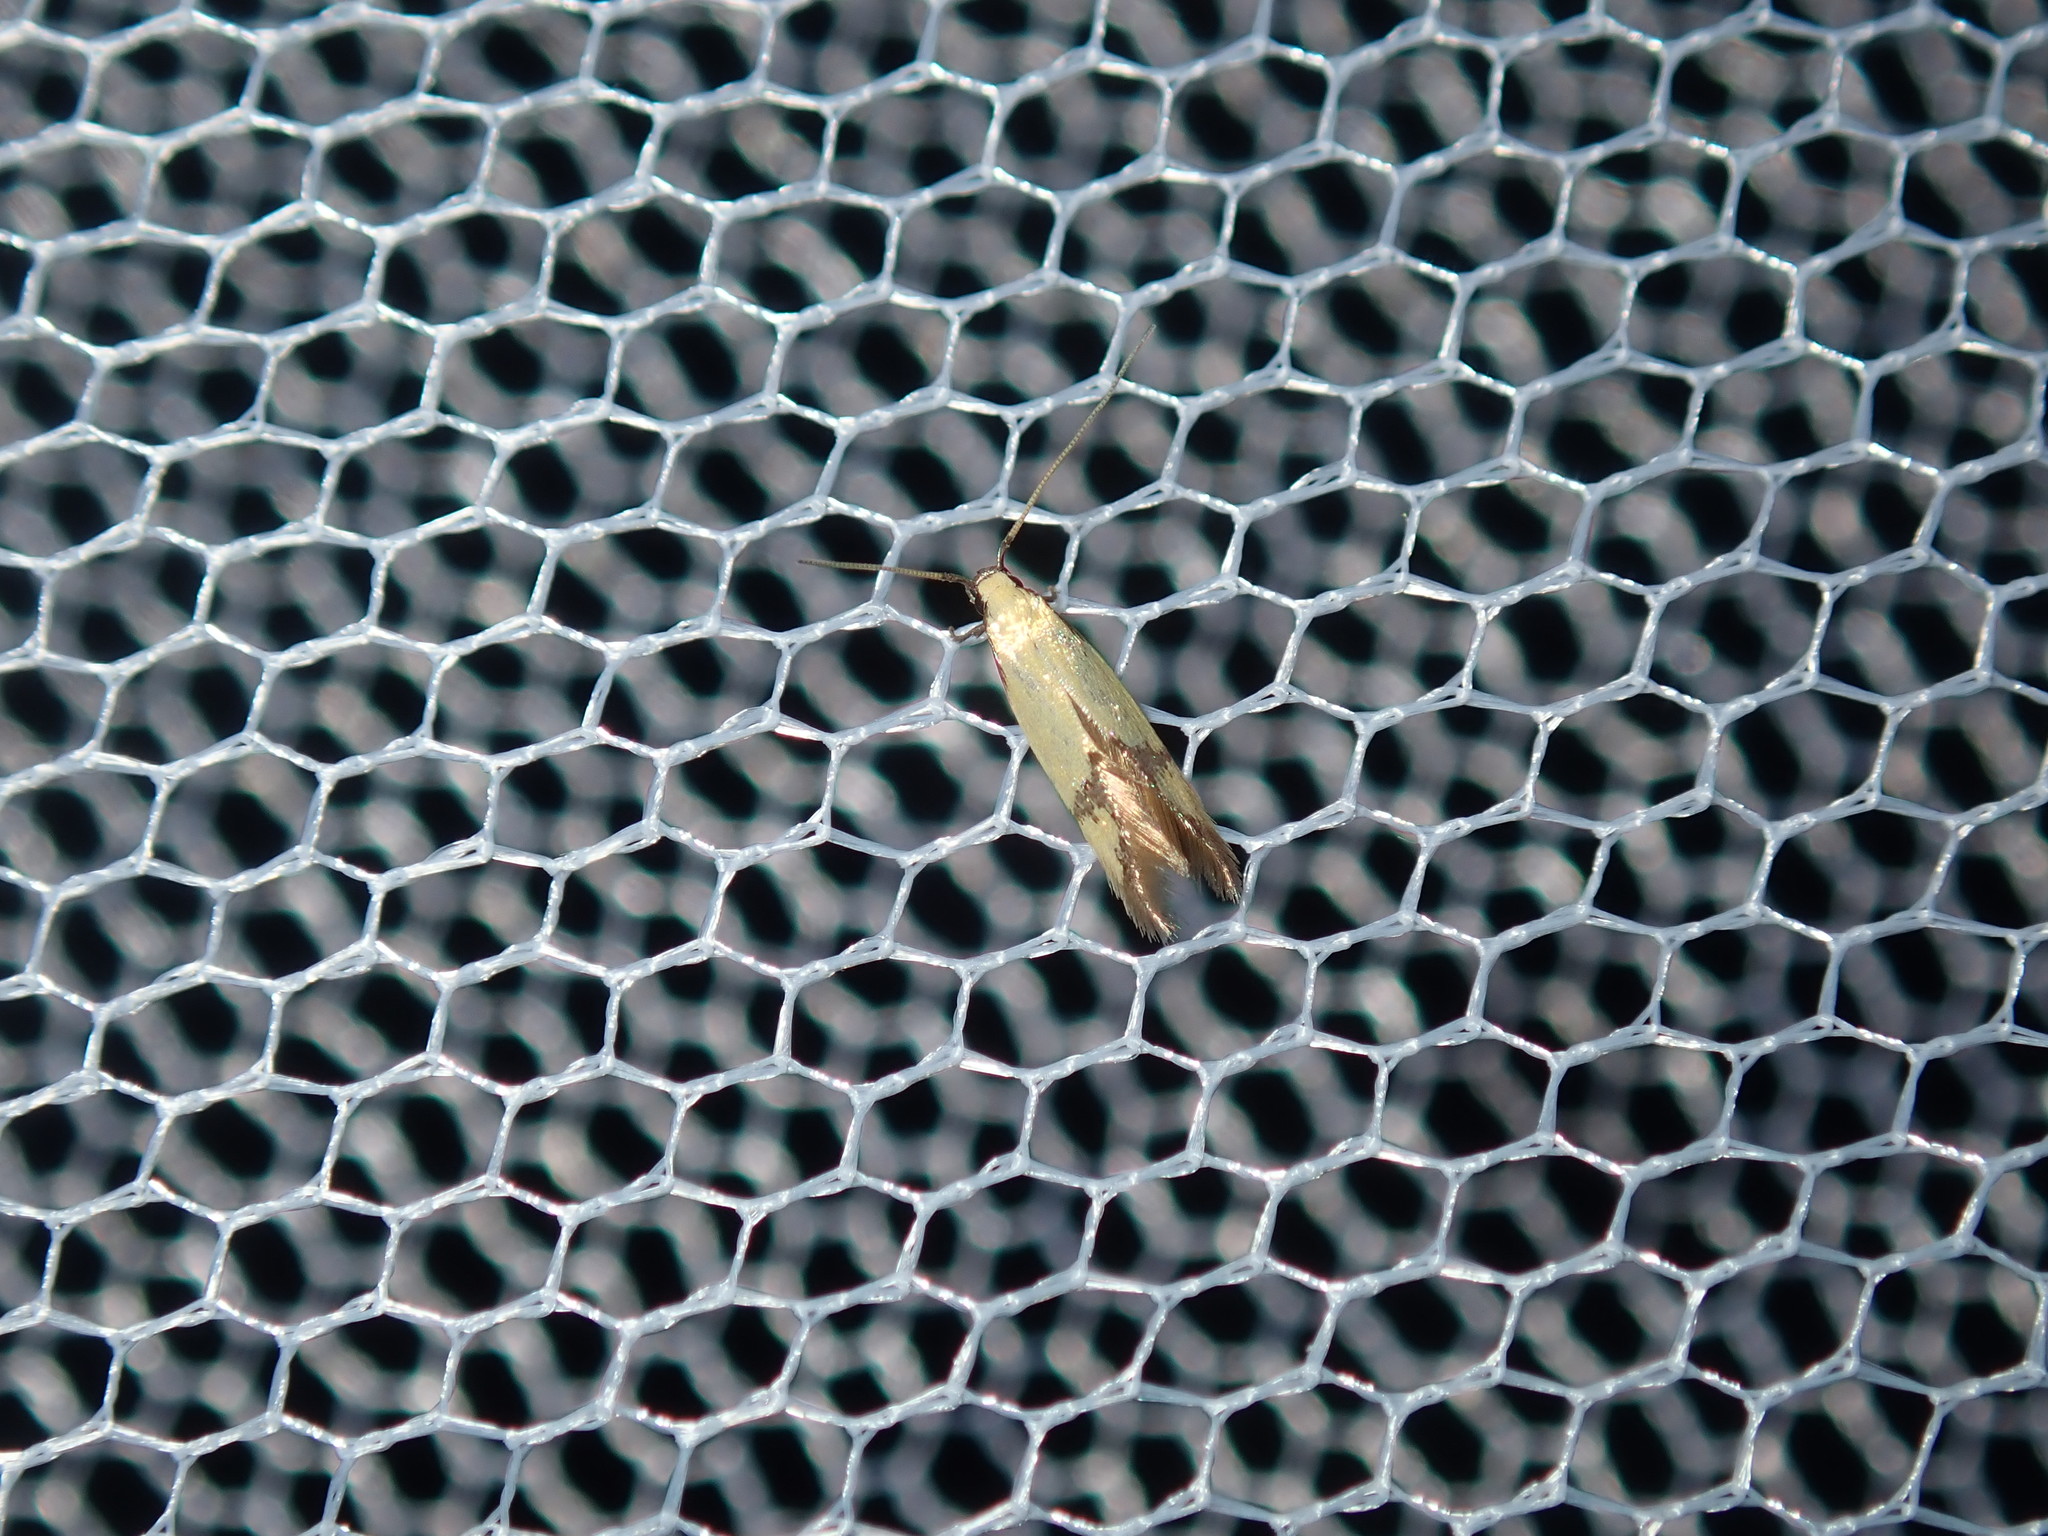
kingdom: Animalia
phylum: Arthropoda
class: Insecta
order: Lepidoptera
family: Tineidae
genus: Opogona
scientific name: Opogona stereodyta
